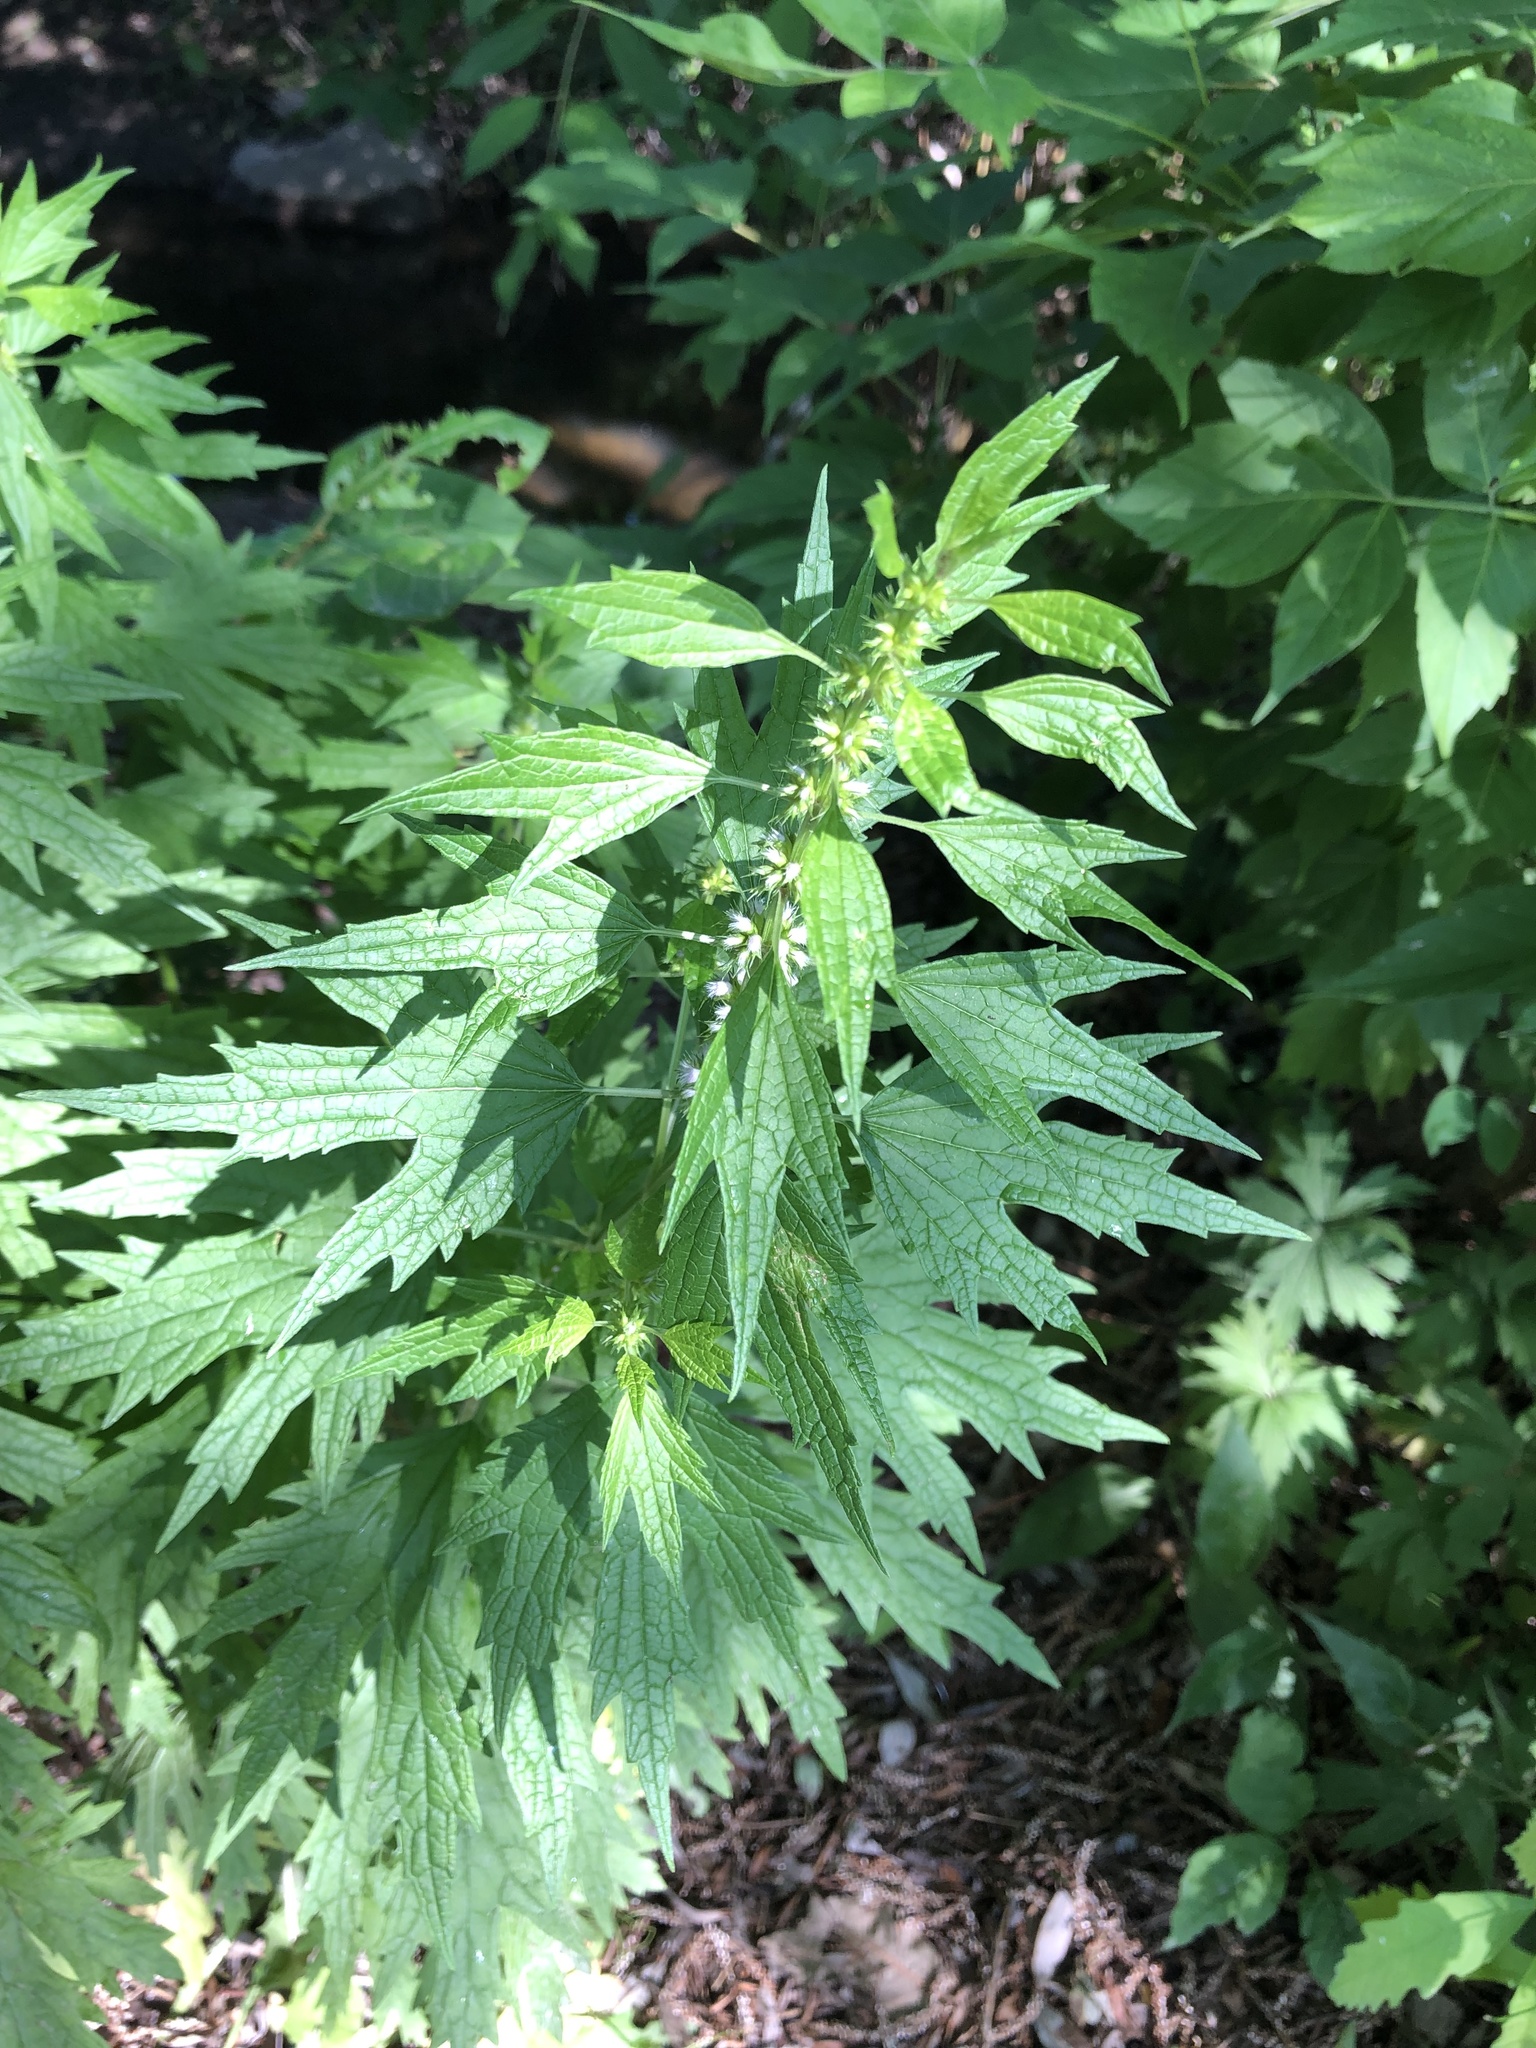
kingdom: Plantae
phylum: Tracheophyta
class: Magnoliopsida
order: Lamiales
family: Lamiaceae
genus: Leonurus
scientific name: Leonurus cardiaca
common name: Motherwort
